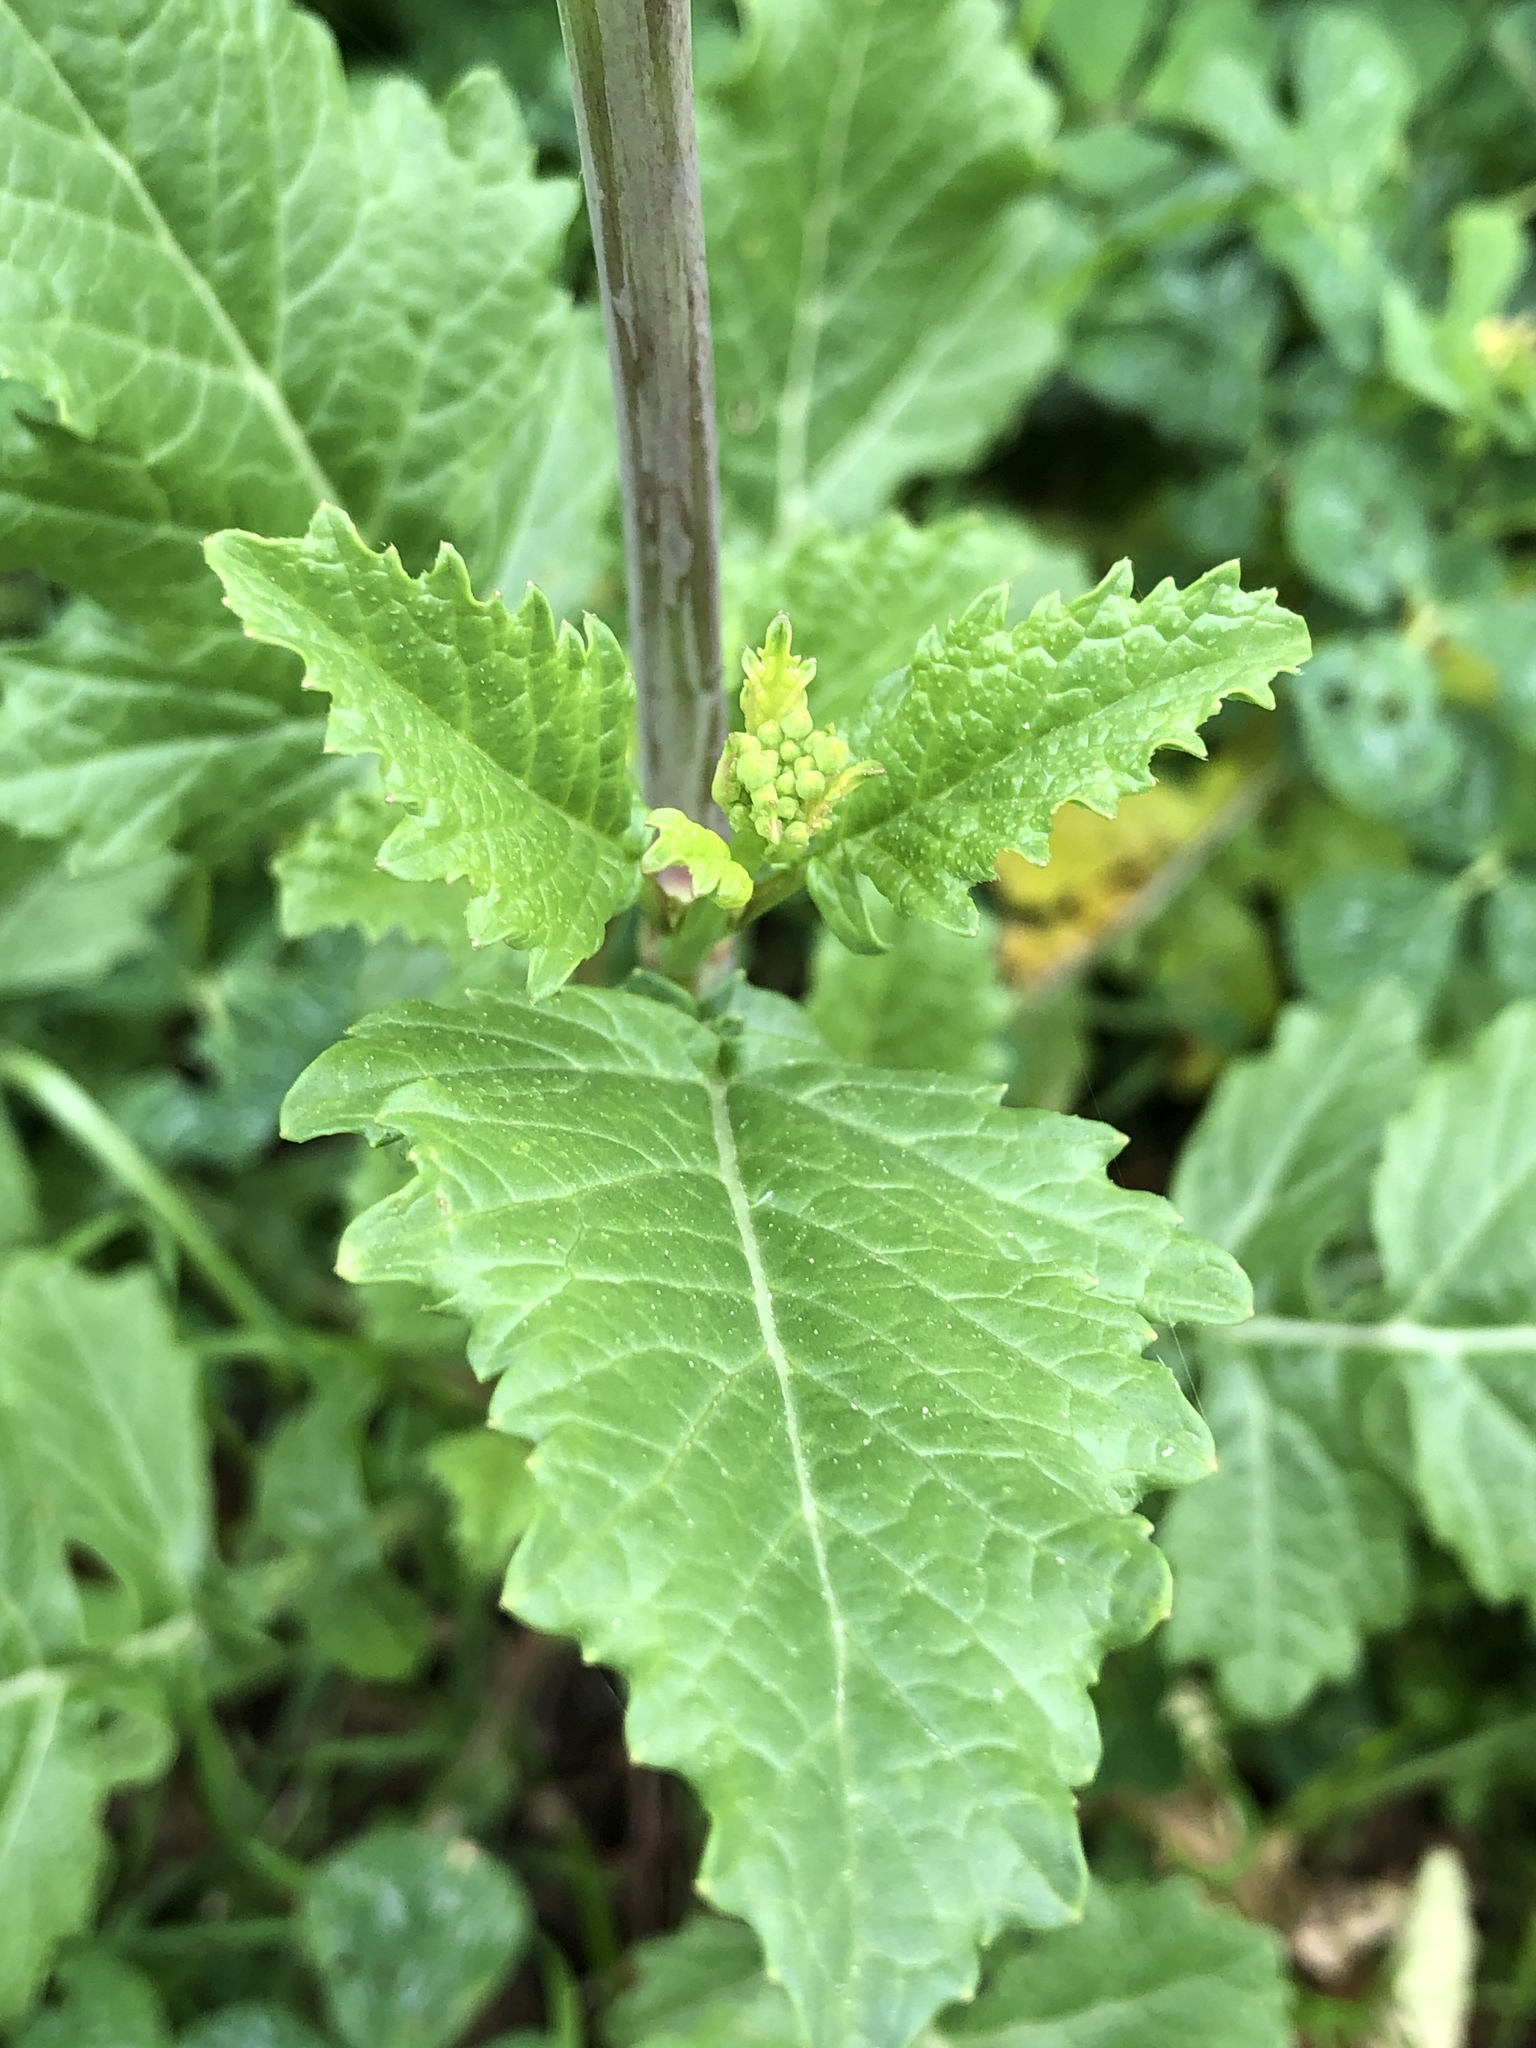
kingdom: Plantae
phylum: Tracheophyta
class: Magnoliopsida
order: Brassicales
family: Brassicaceae
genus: Rapistrum
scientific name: Rapistrum rugosum
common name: Annual bastardcabbage
